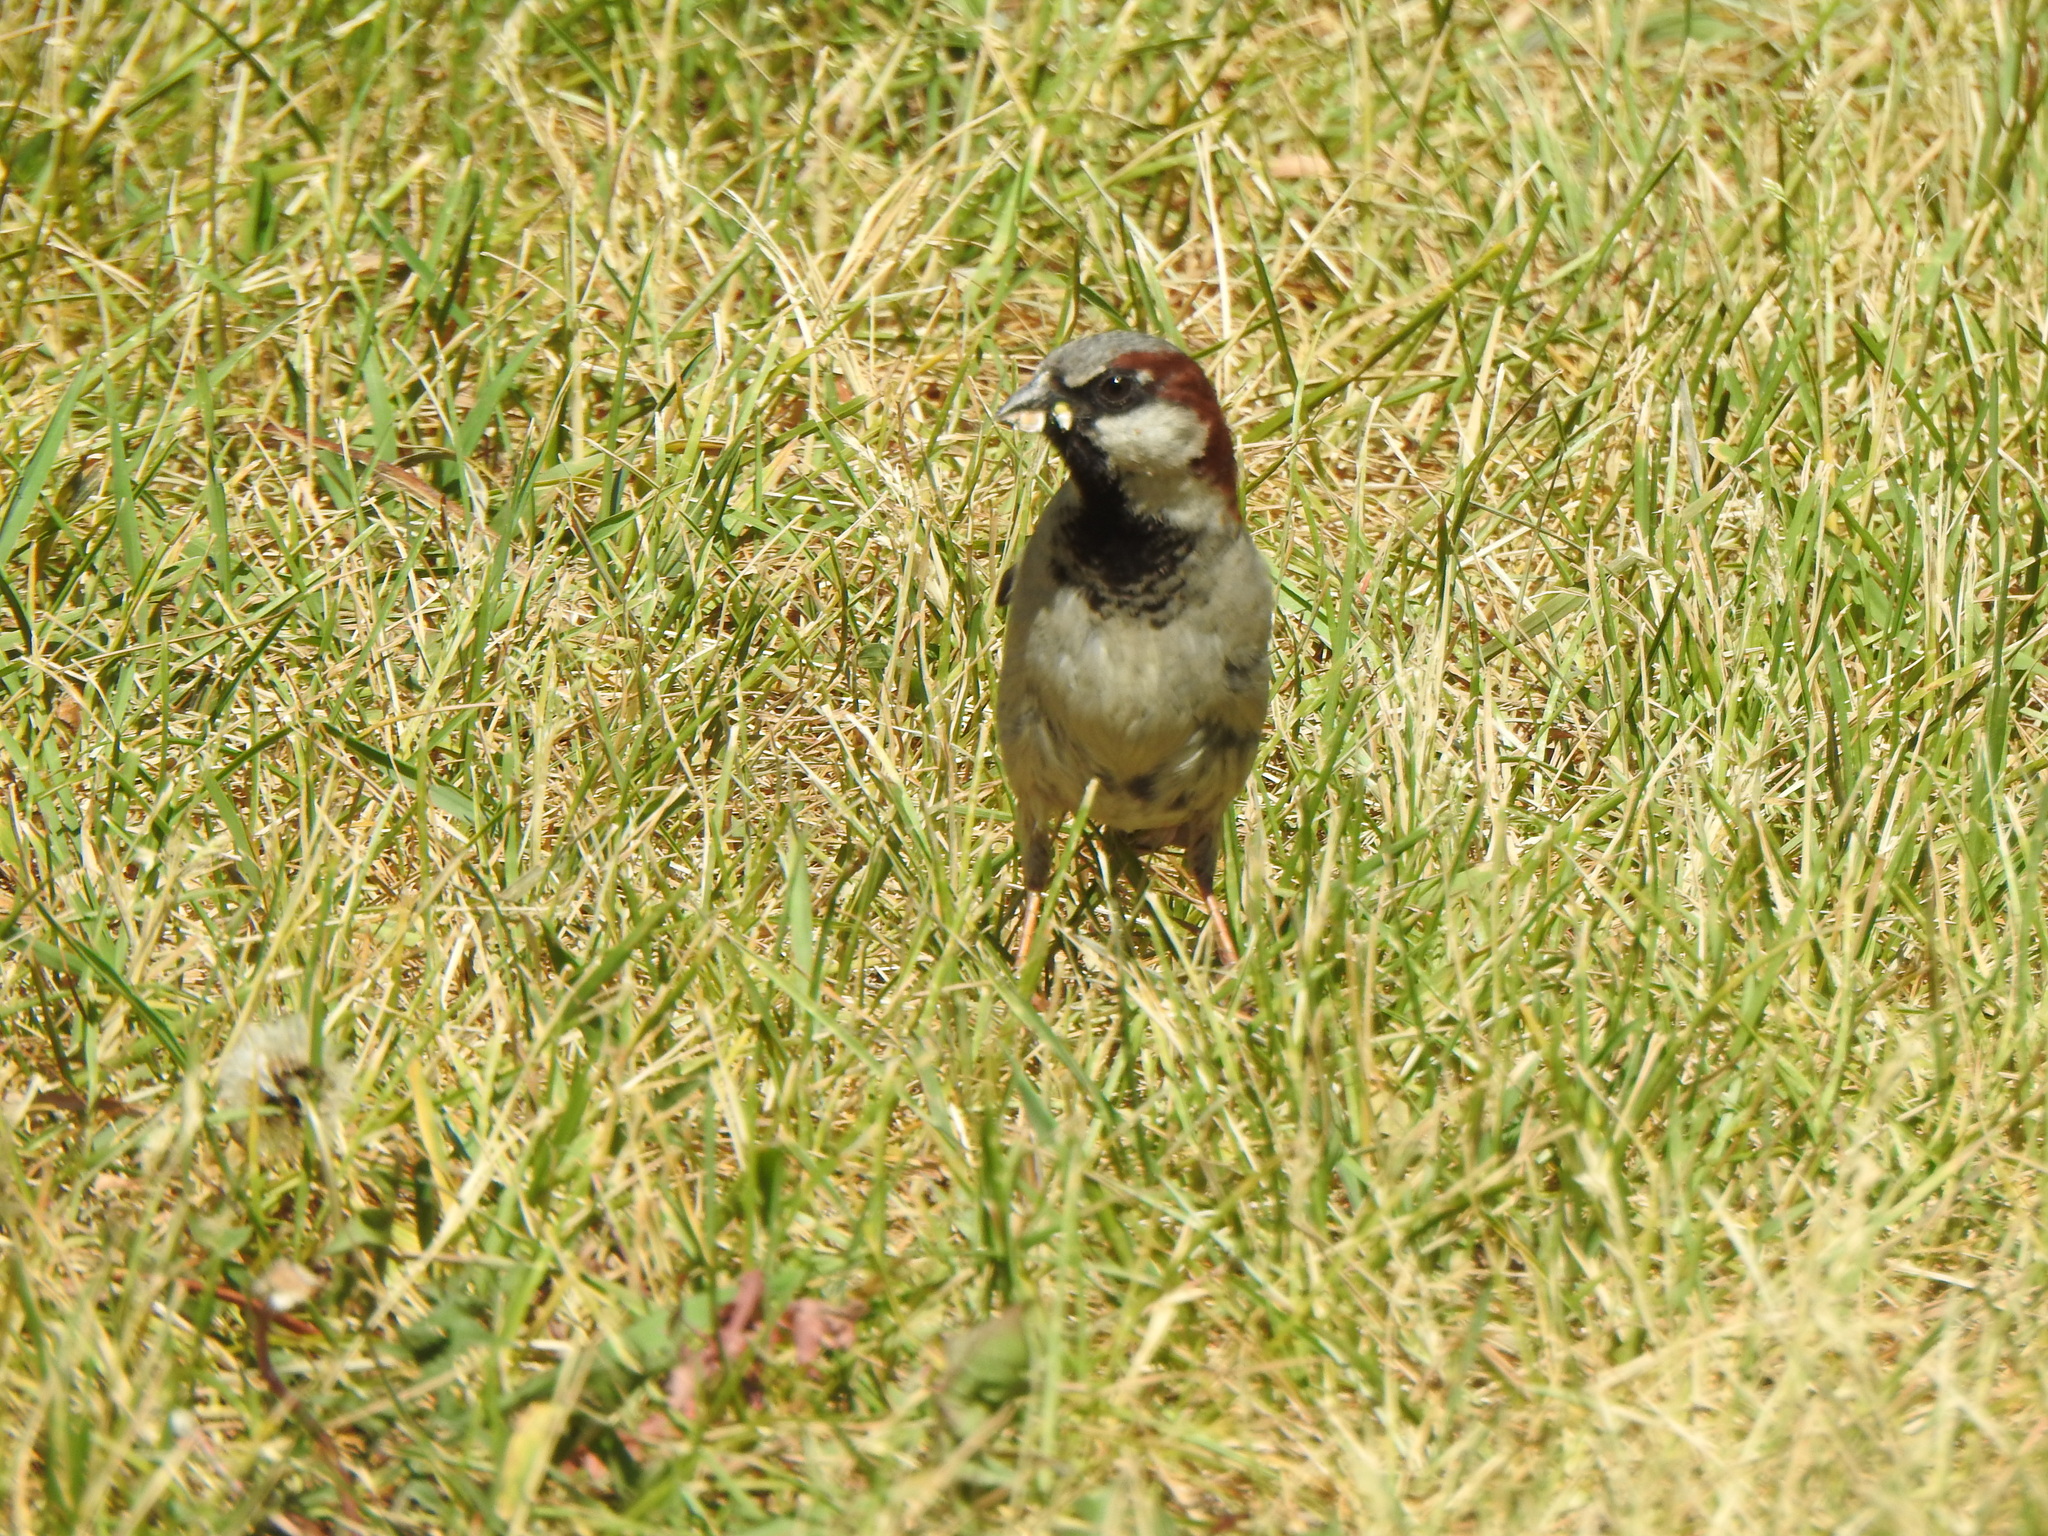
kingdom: Animalia
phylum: Chordata
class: Aves
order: Passeriformes
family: Passeridae
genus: Passer
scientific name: Passer domesticus
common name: House sparrow
